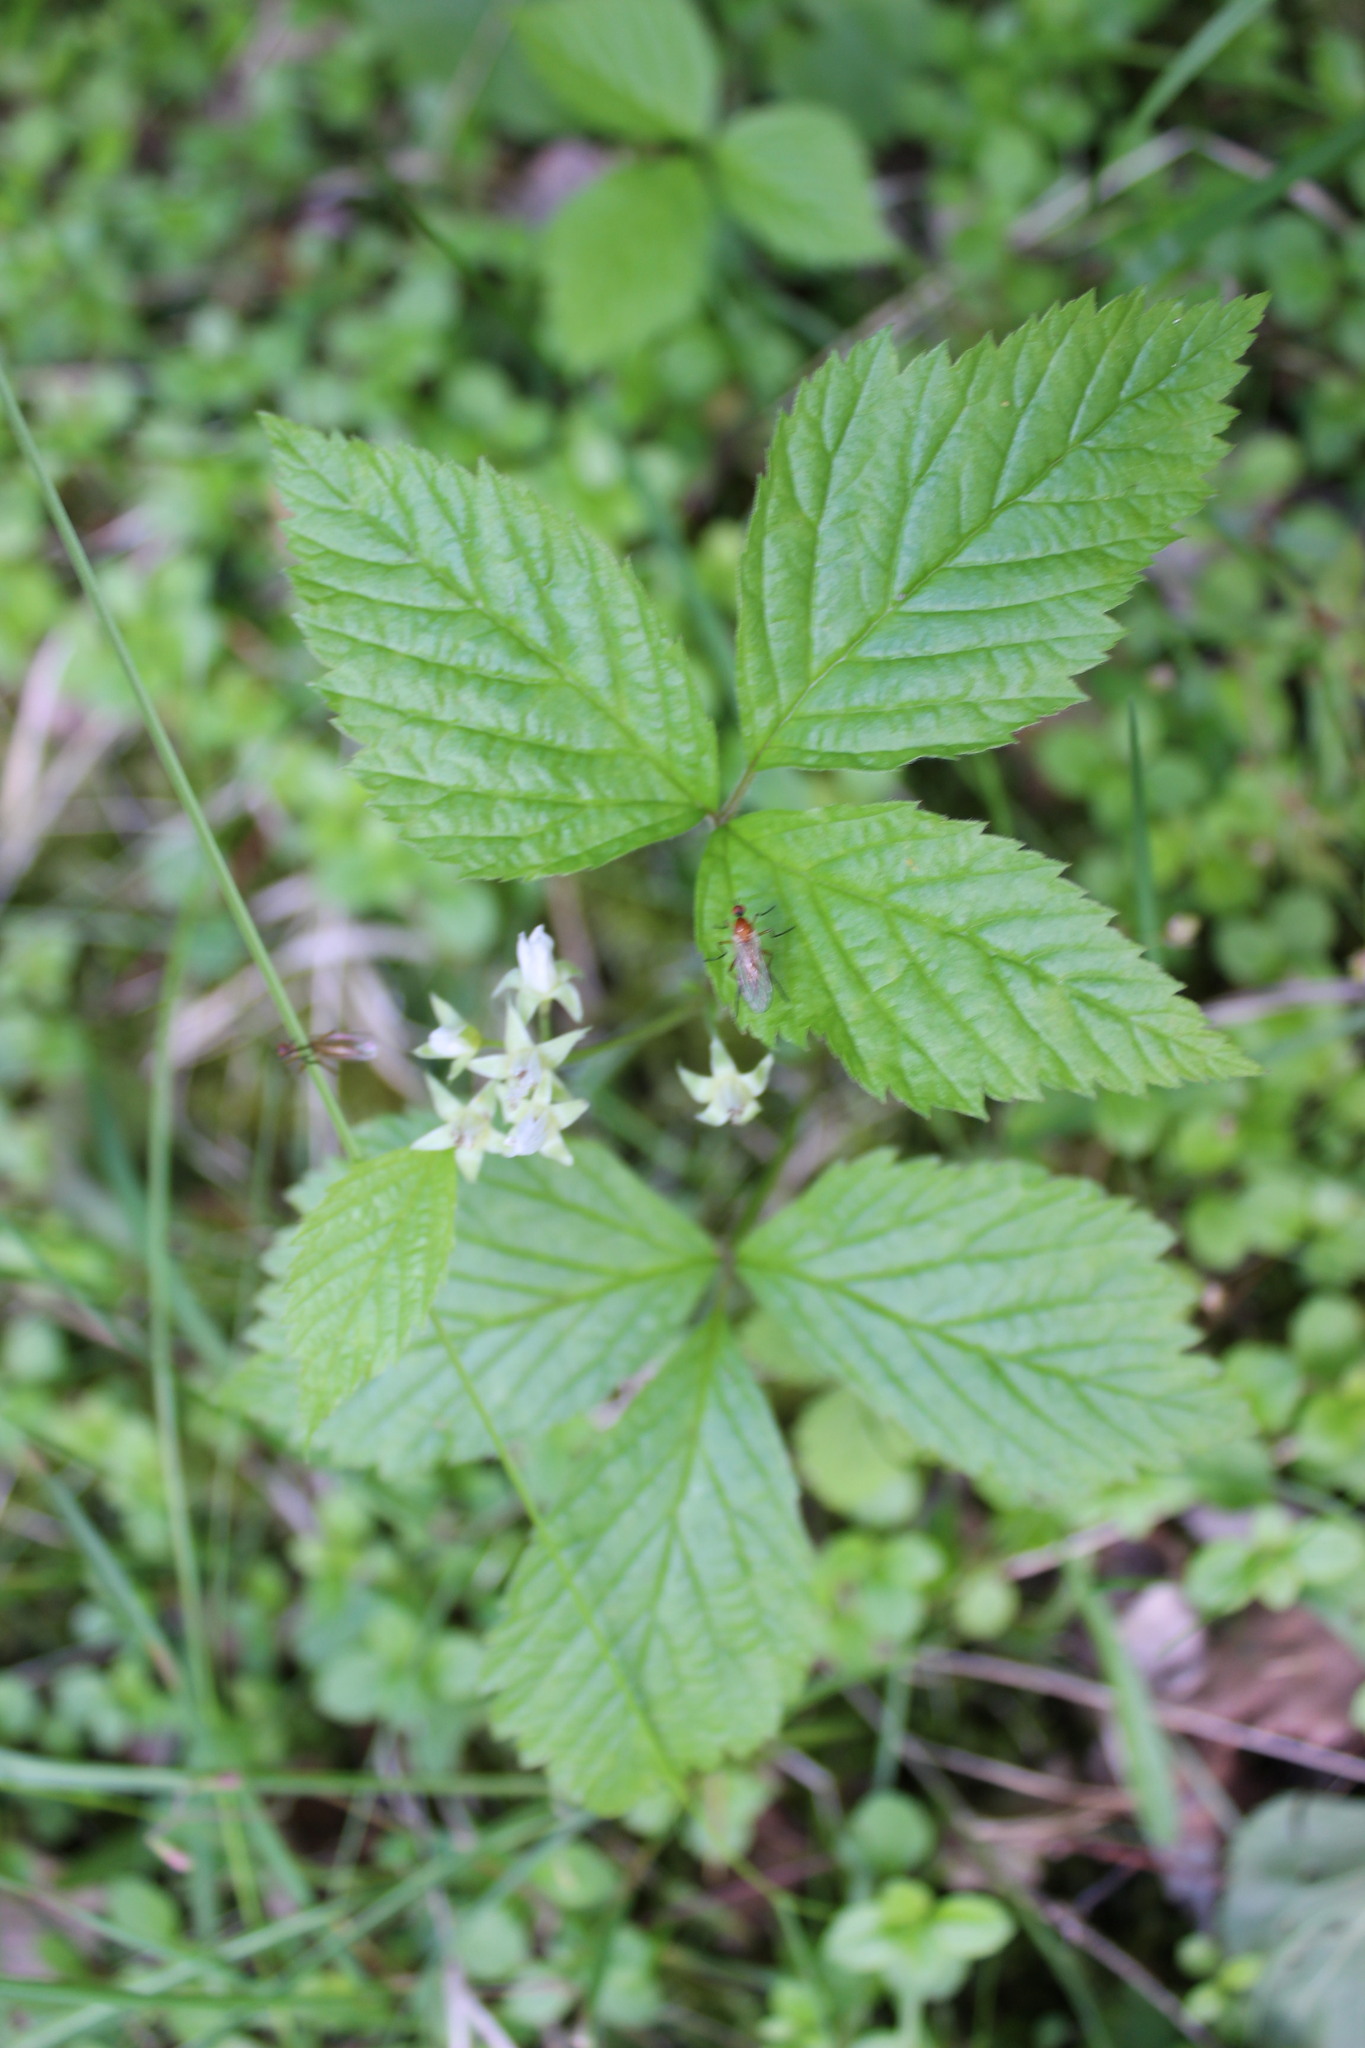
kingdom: Plantae
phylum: Tracheophyta
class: Magnoliopsida
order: Rosales
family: Rosaceae
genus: Rubus
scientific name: Rubus saxatilis
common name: Stone bramble
